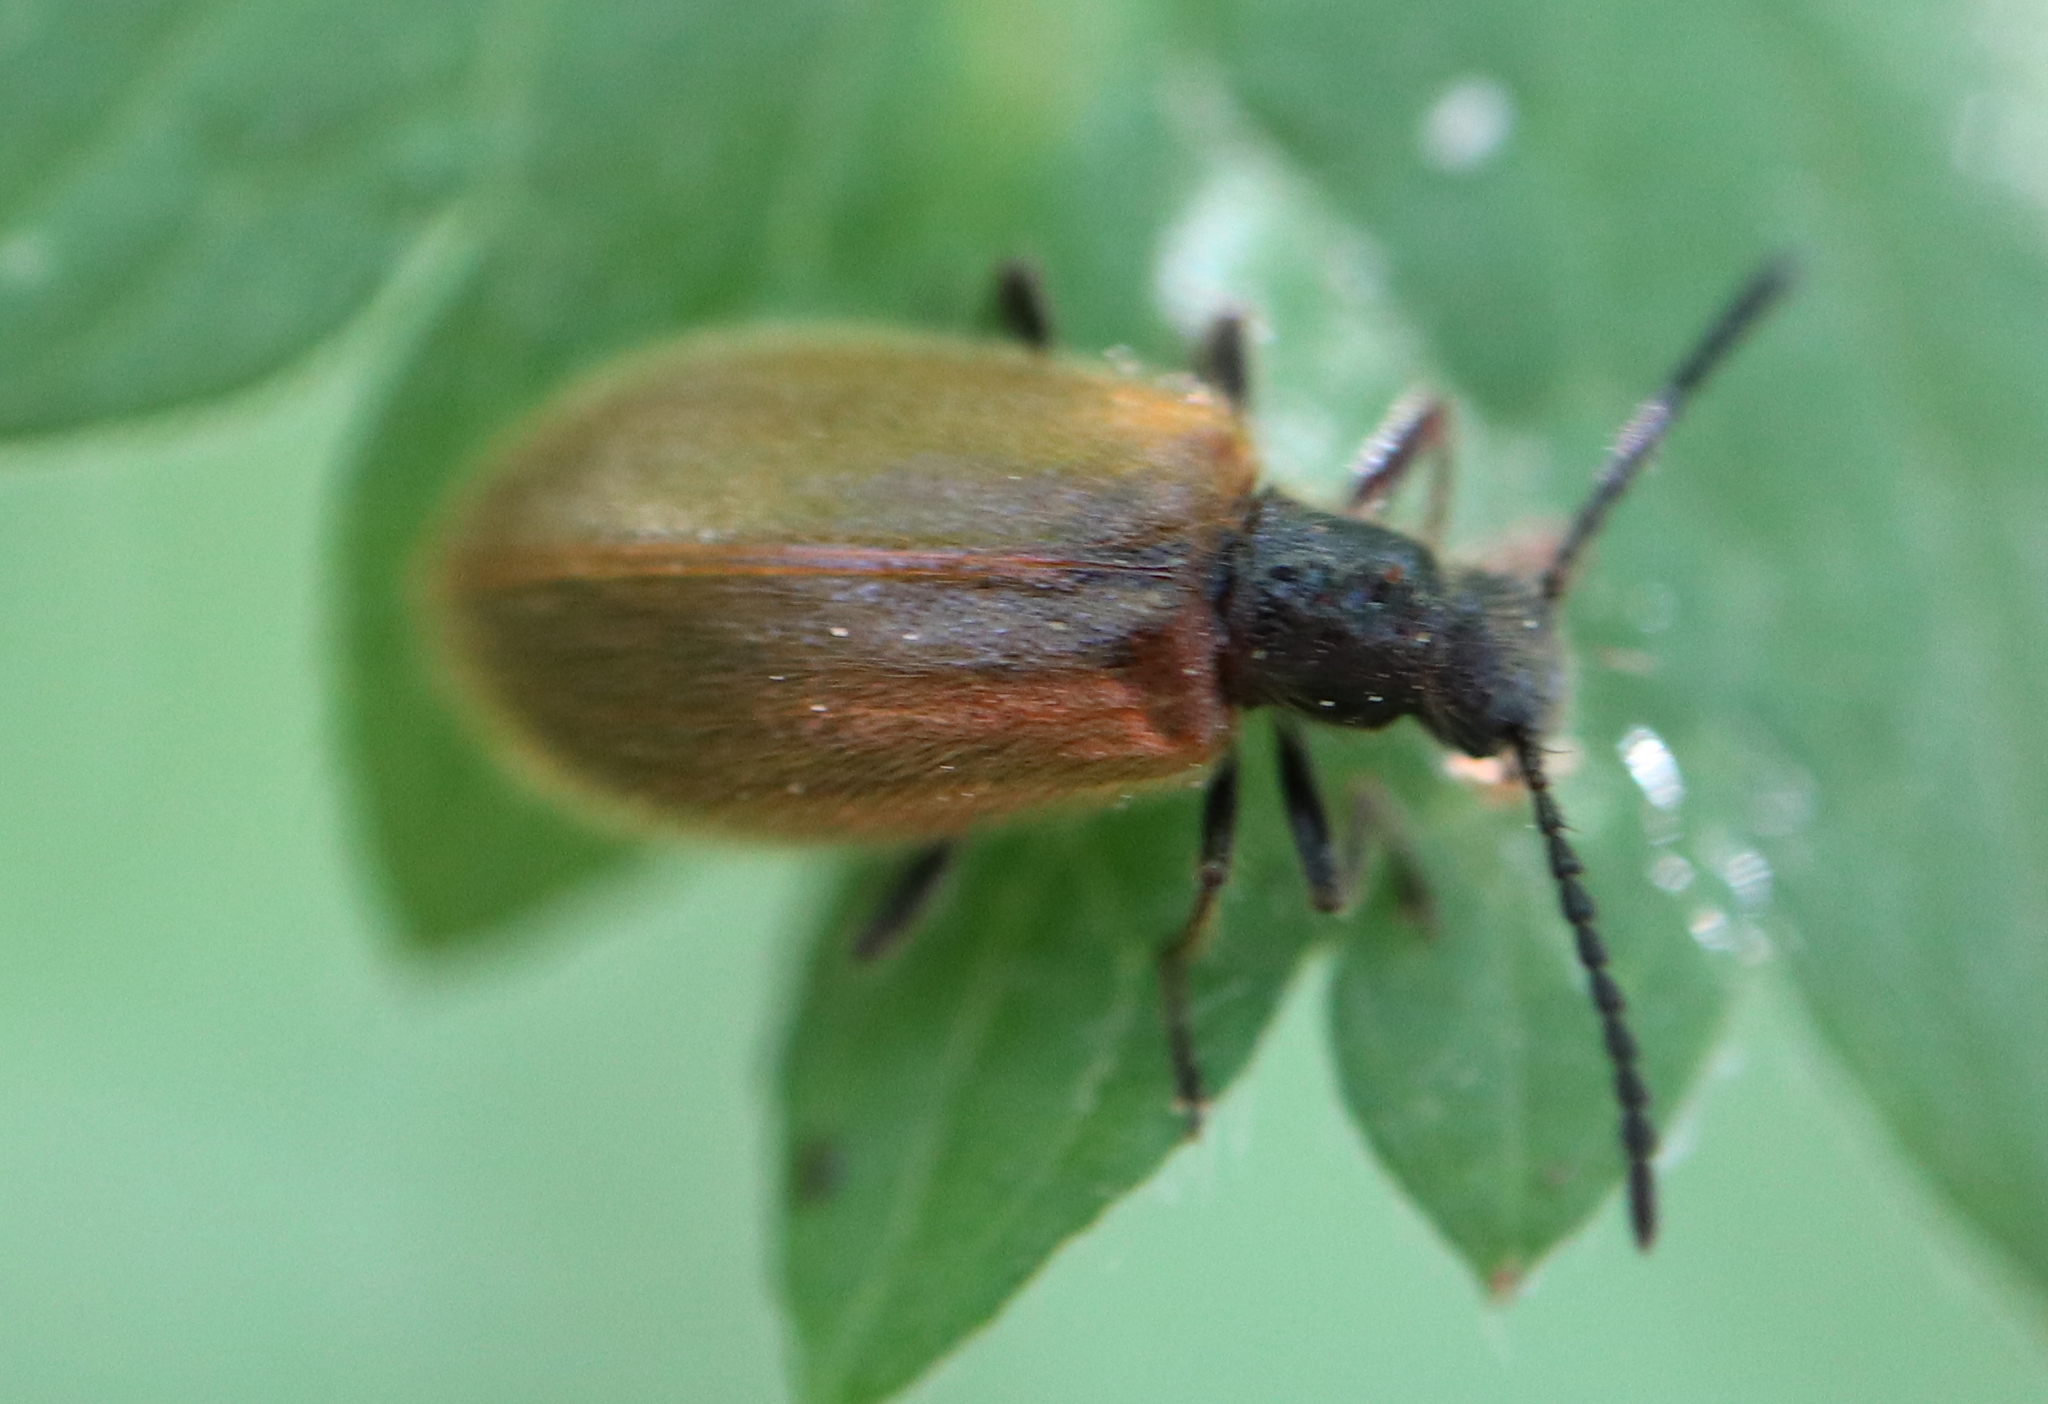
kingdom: Animalia
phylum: Arthropoda
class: Insecta
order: Coleoptera
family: Tenebrionidae
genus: Lagria
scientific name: Lagria hirta
